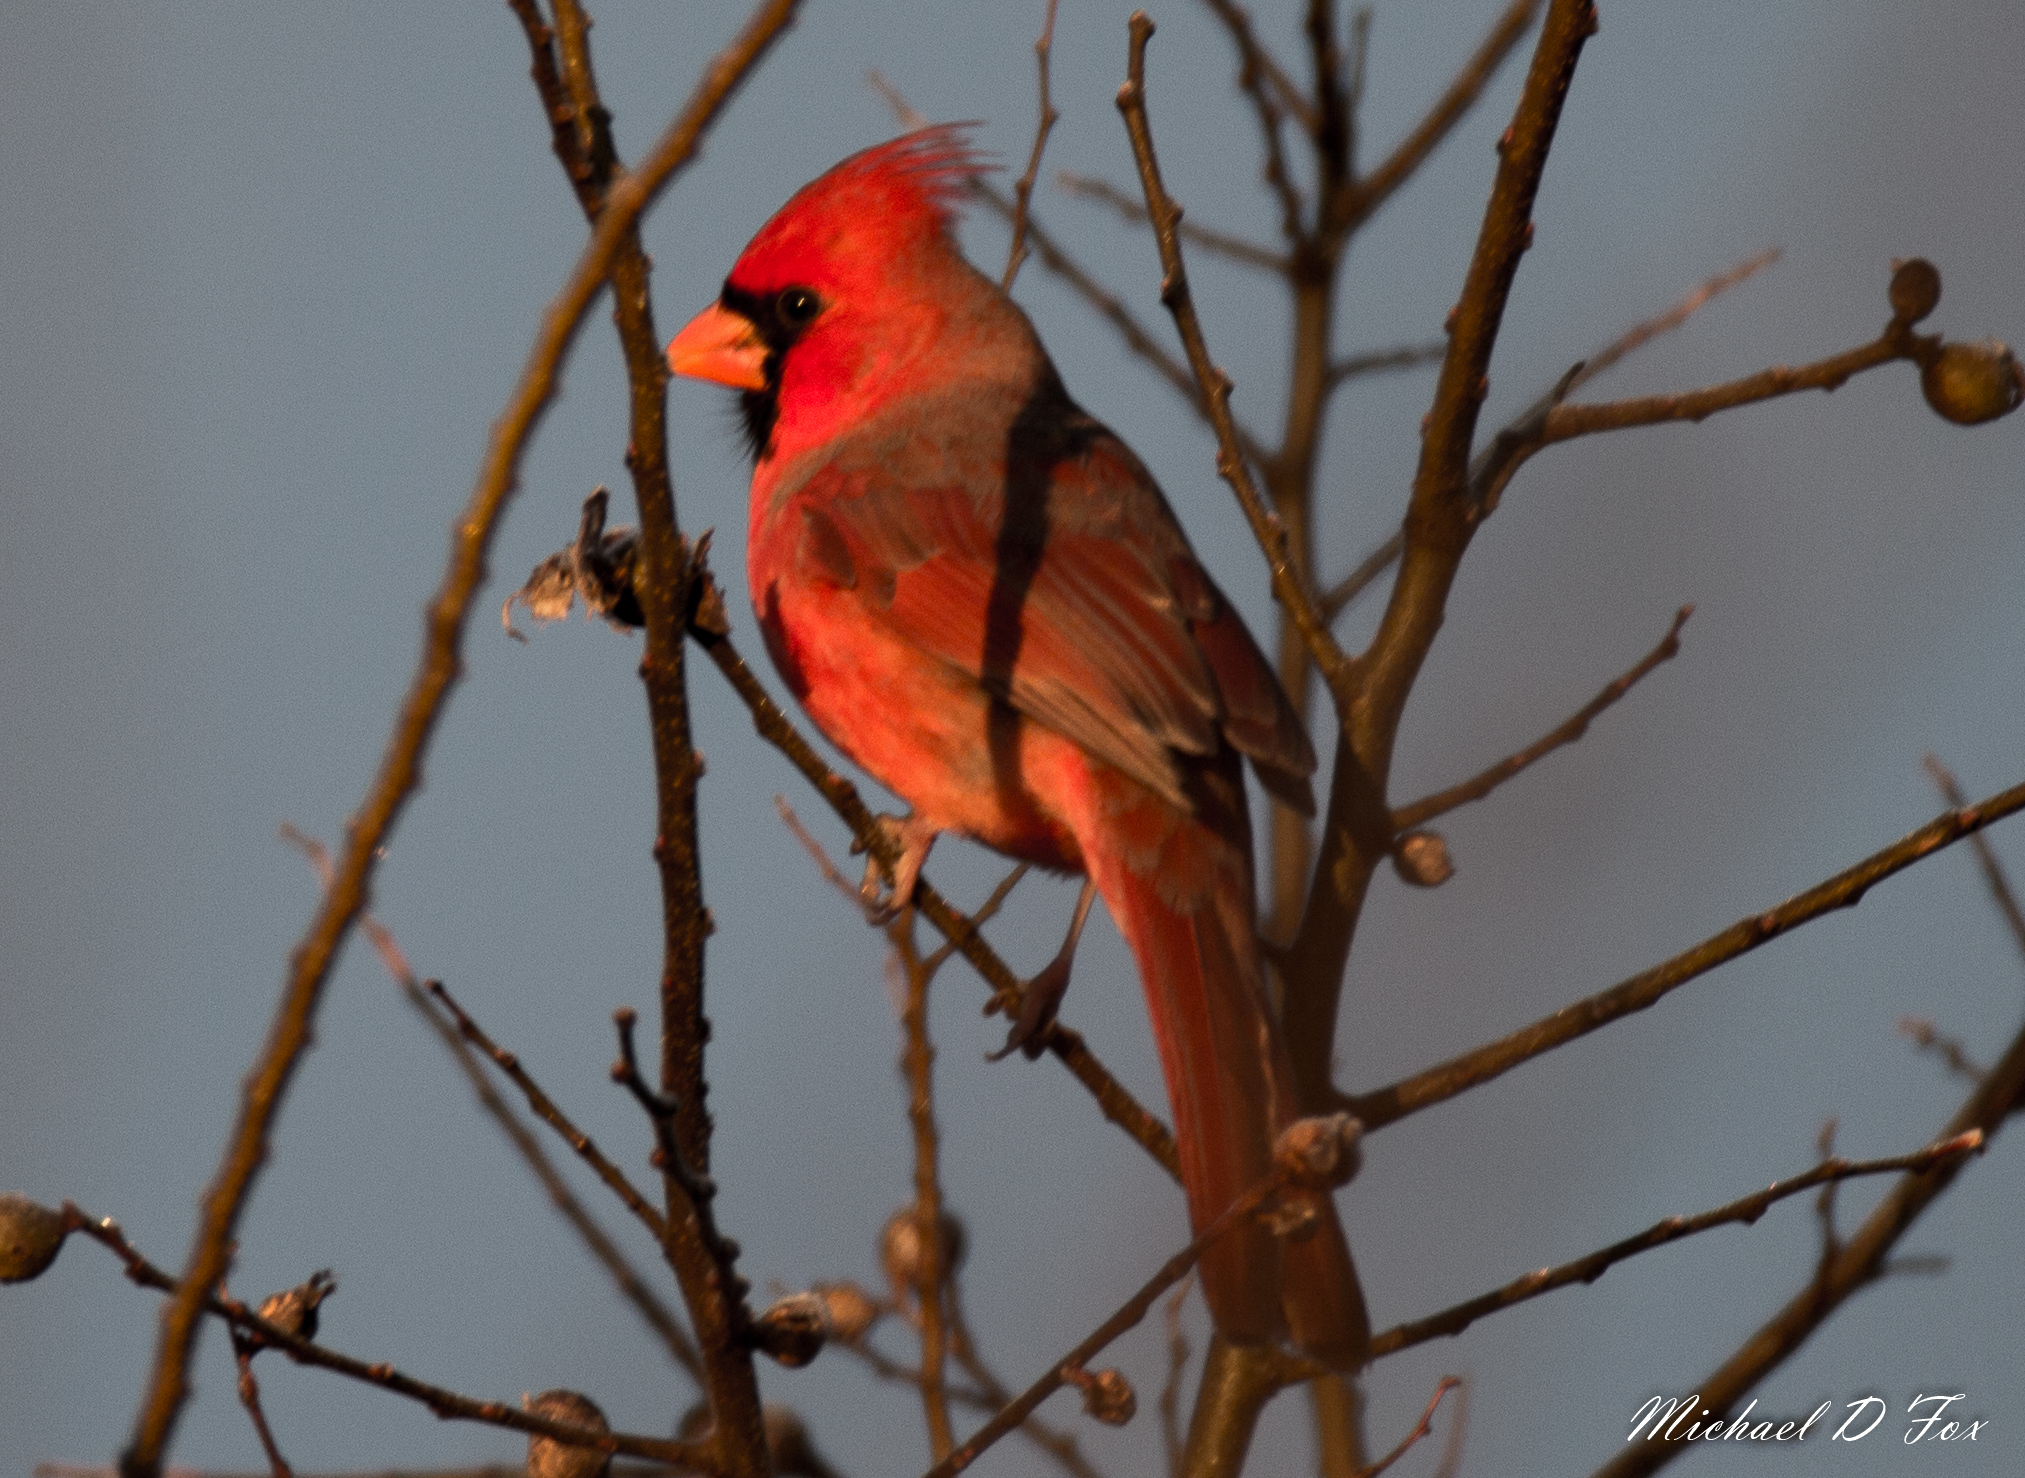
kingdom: Animalia
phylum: Chordata
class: Aves
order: Passeriformes
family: Cardinalidae
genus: Cardinalis
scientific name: Cardinalis cardinalis
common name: Northern cardinal
